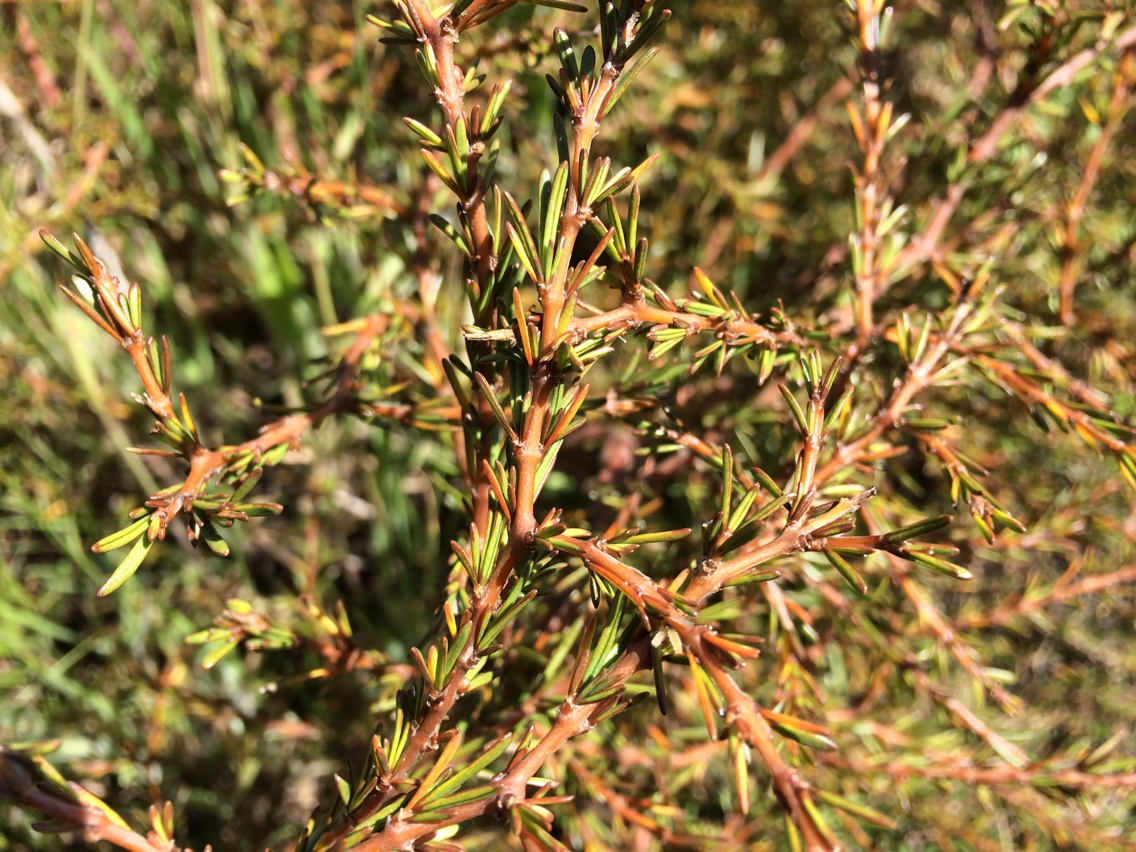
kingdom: Plantae
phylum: Tracheophyta
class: Magnoliopsida
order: Gentianales
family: Rubiaceae
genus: Coprosma
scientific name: Coprosma acerosa
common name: Sand coprosma
